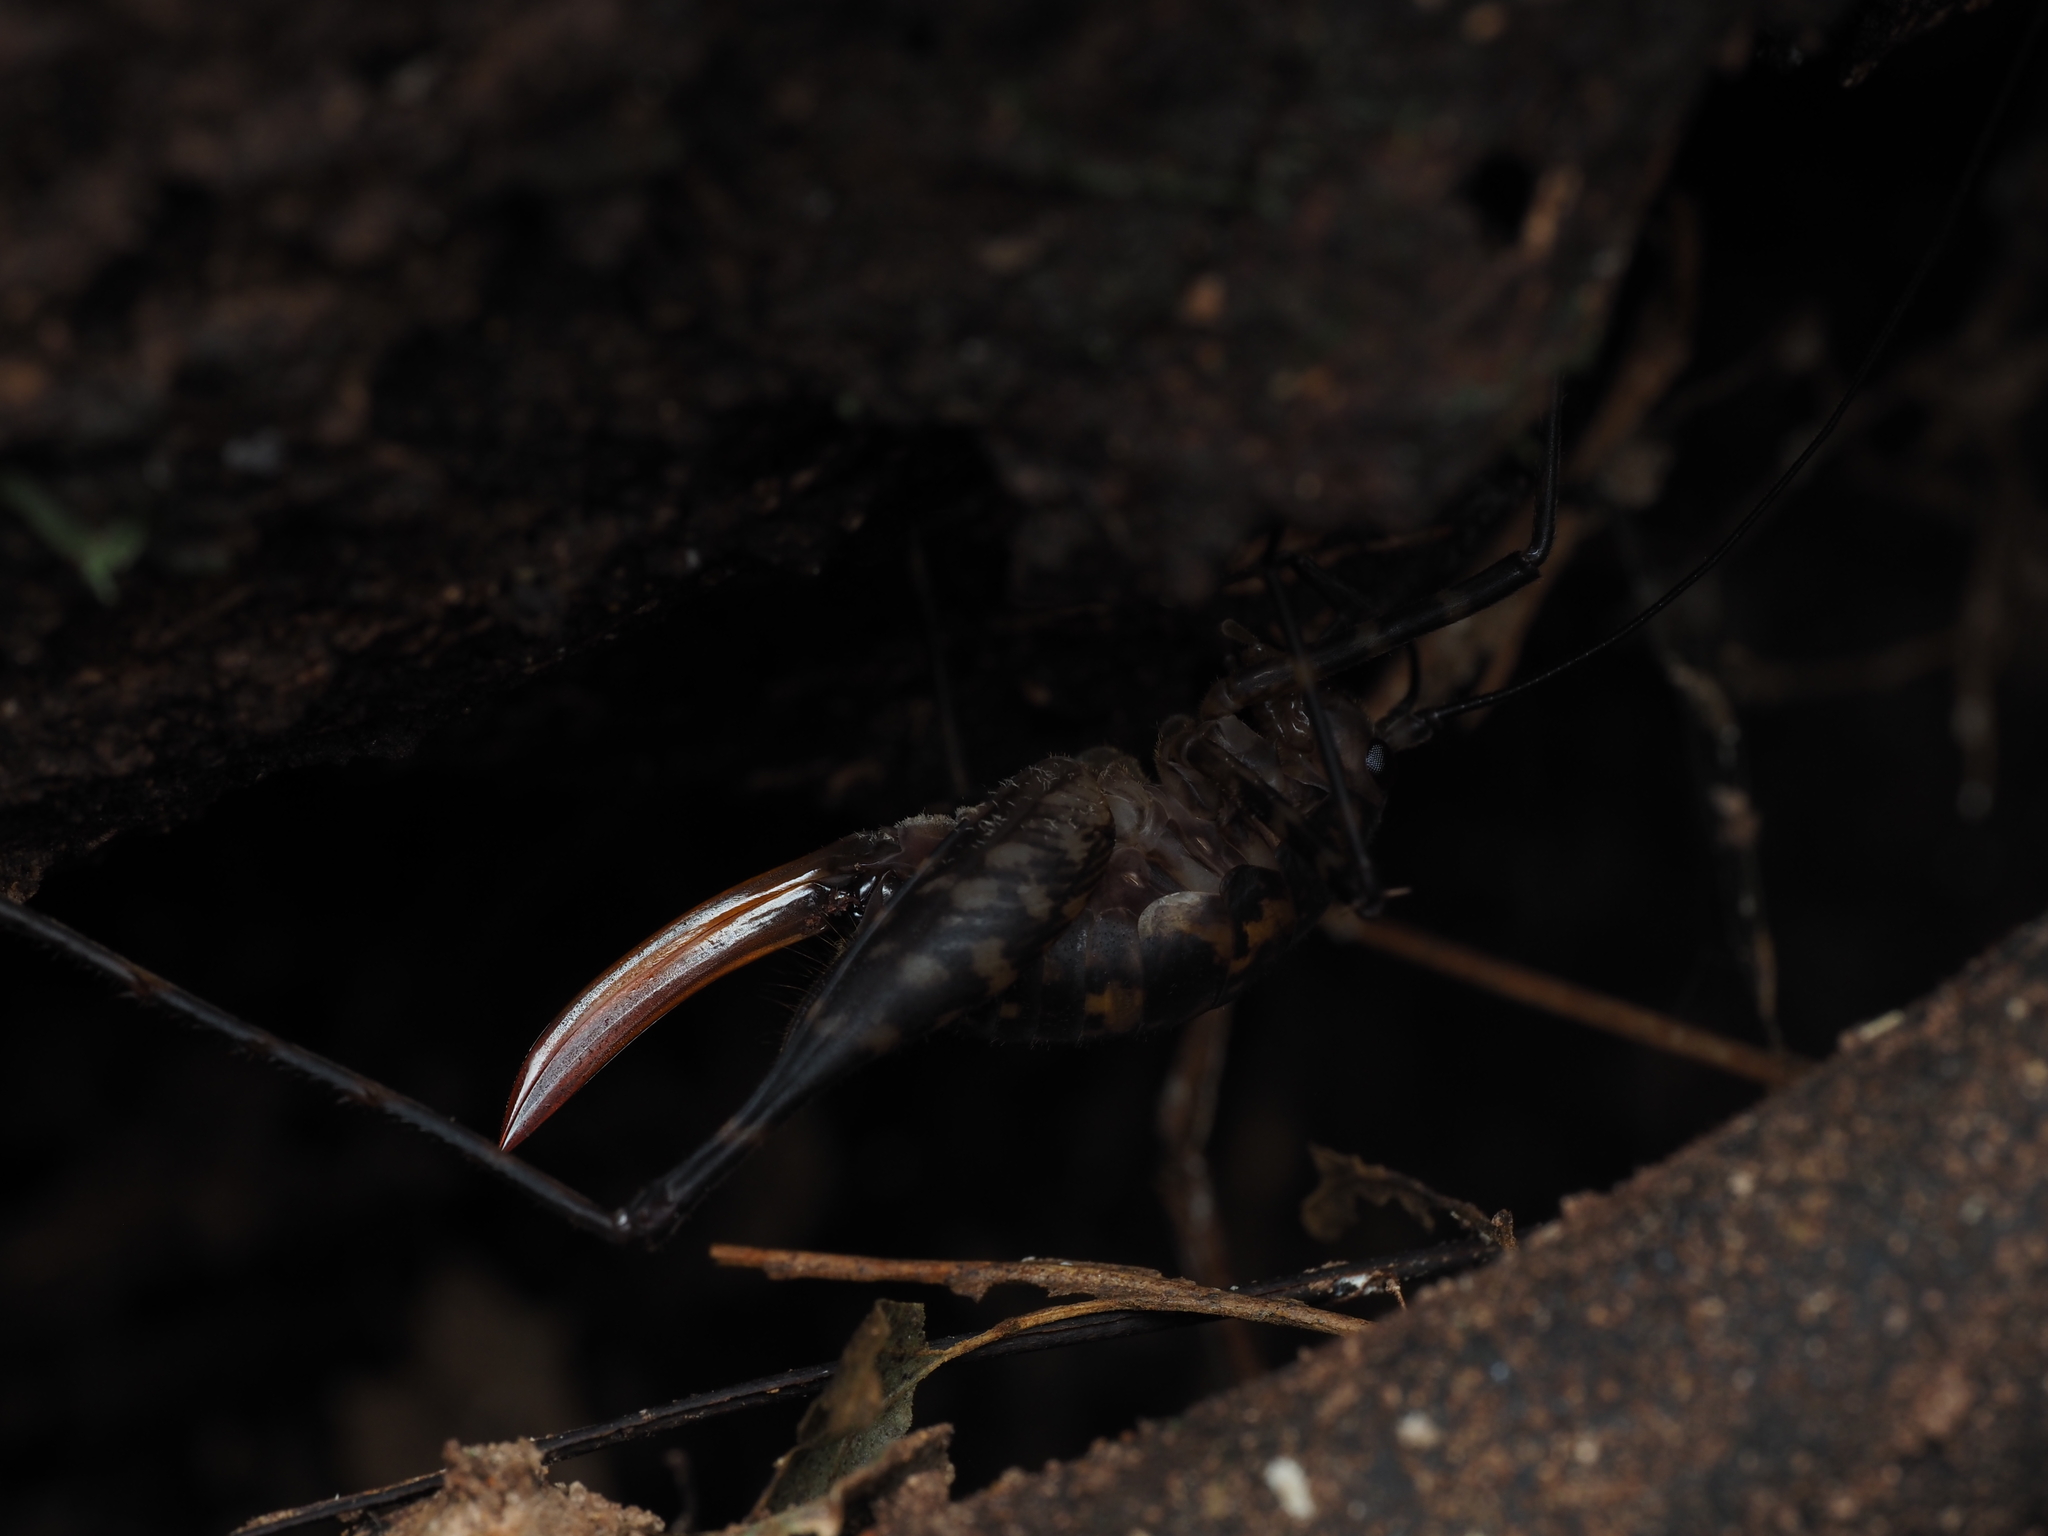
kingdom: Animalia
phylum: Arthropoda
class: Insecta
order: Orthoptera
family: Rhaphidophoridae
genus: Miotopus
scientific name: Miotopus richardsae
